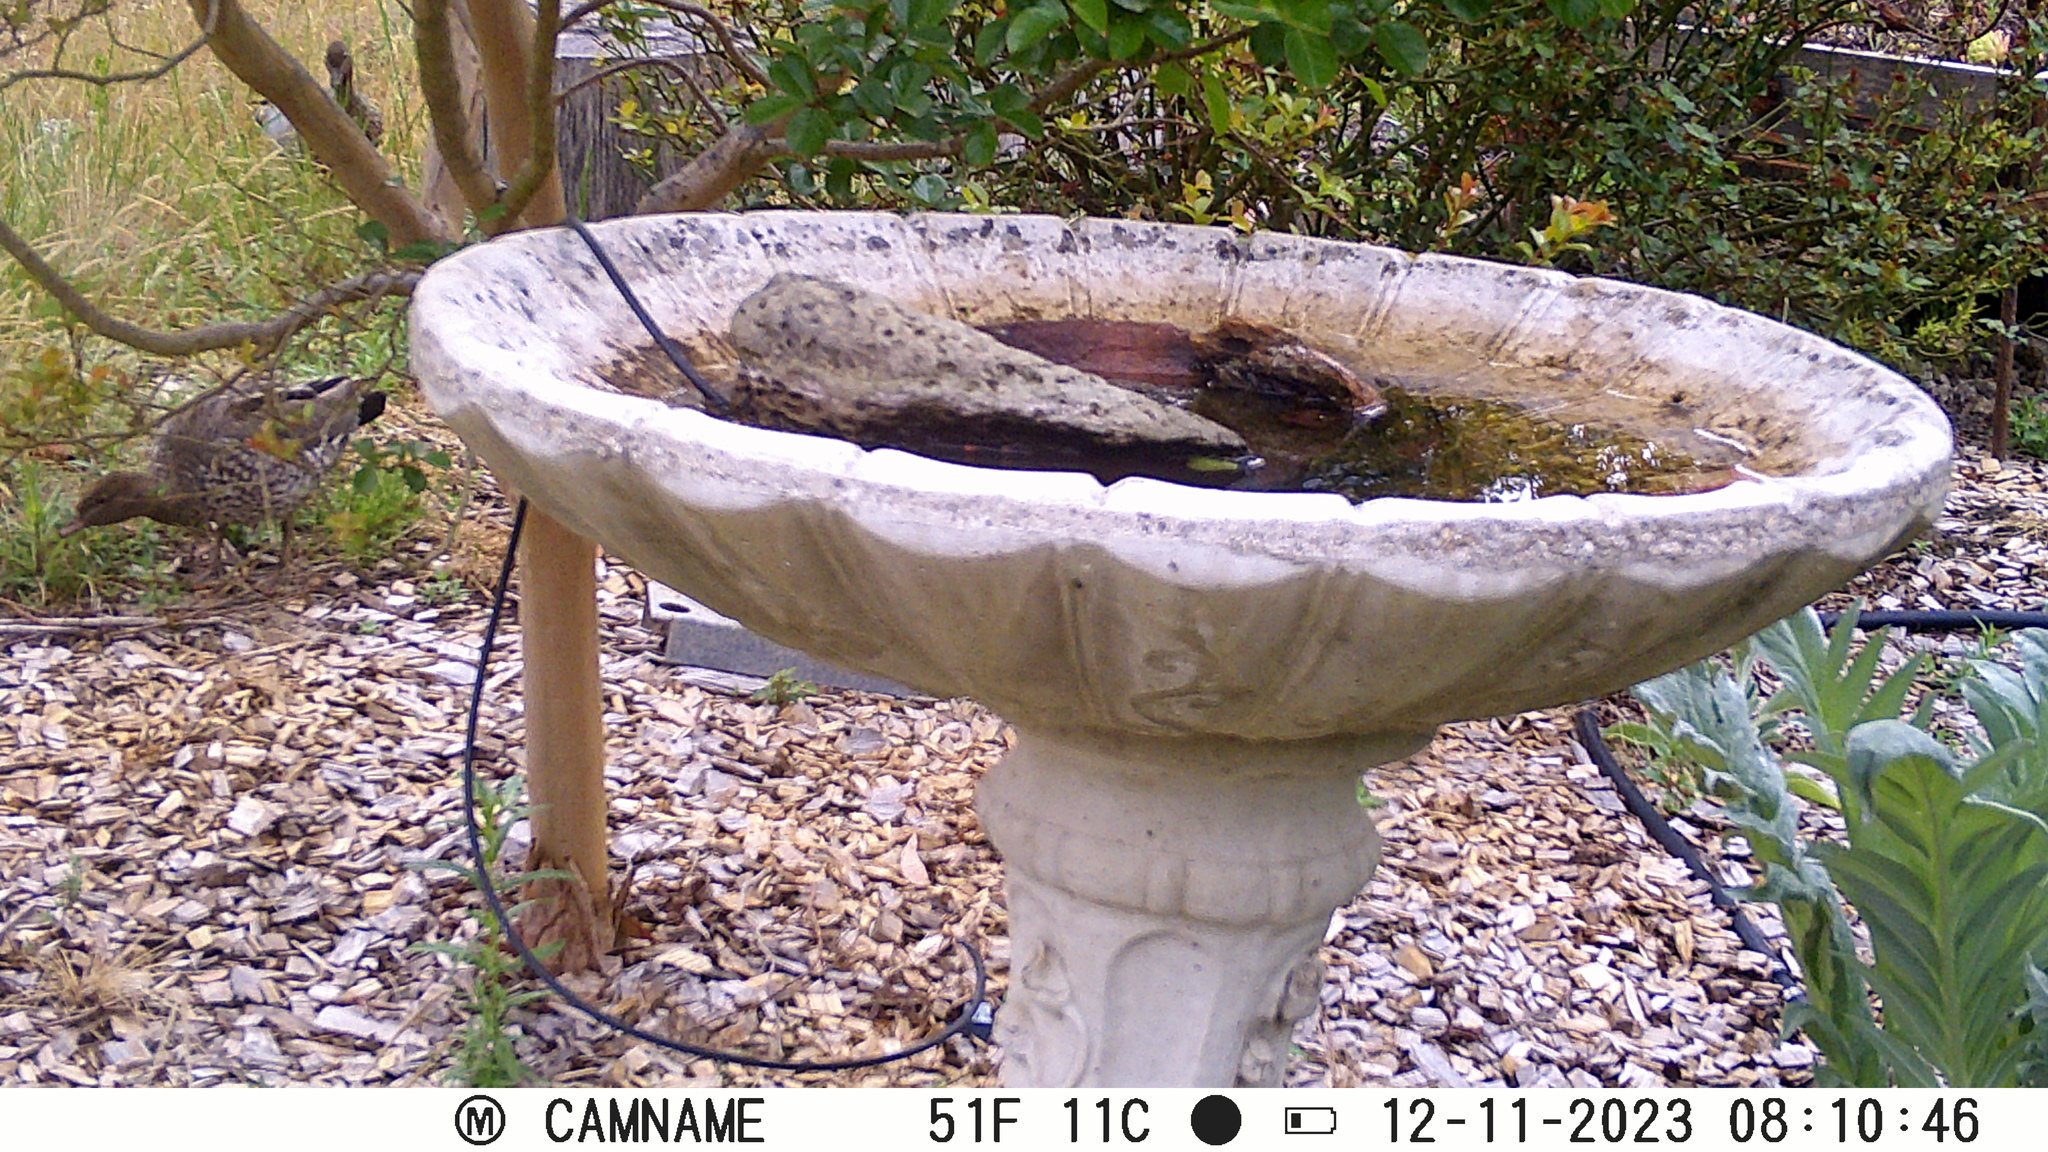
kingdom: Animalia
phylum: Chordata
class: Aves
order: Anseriformes
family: Anatidae
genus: Chenonetta
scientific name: Chenonetta jubata
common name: Maned duck
